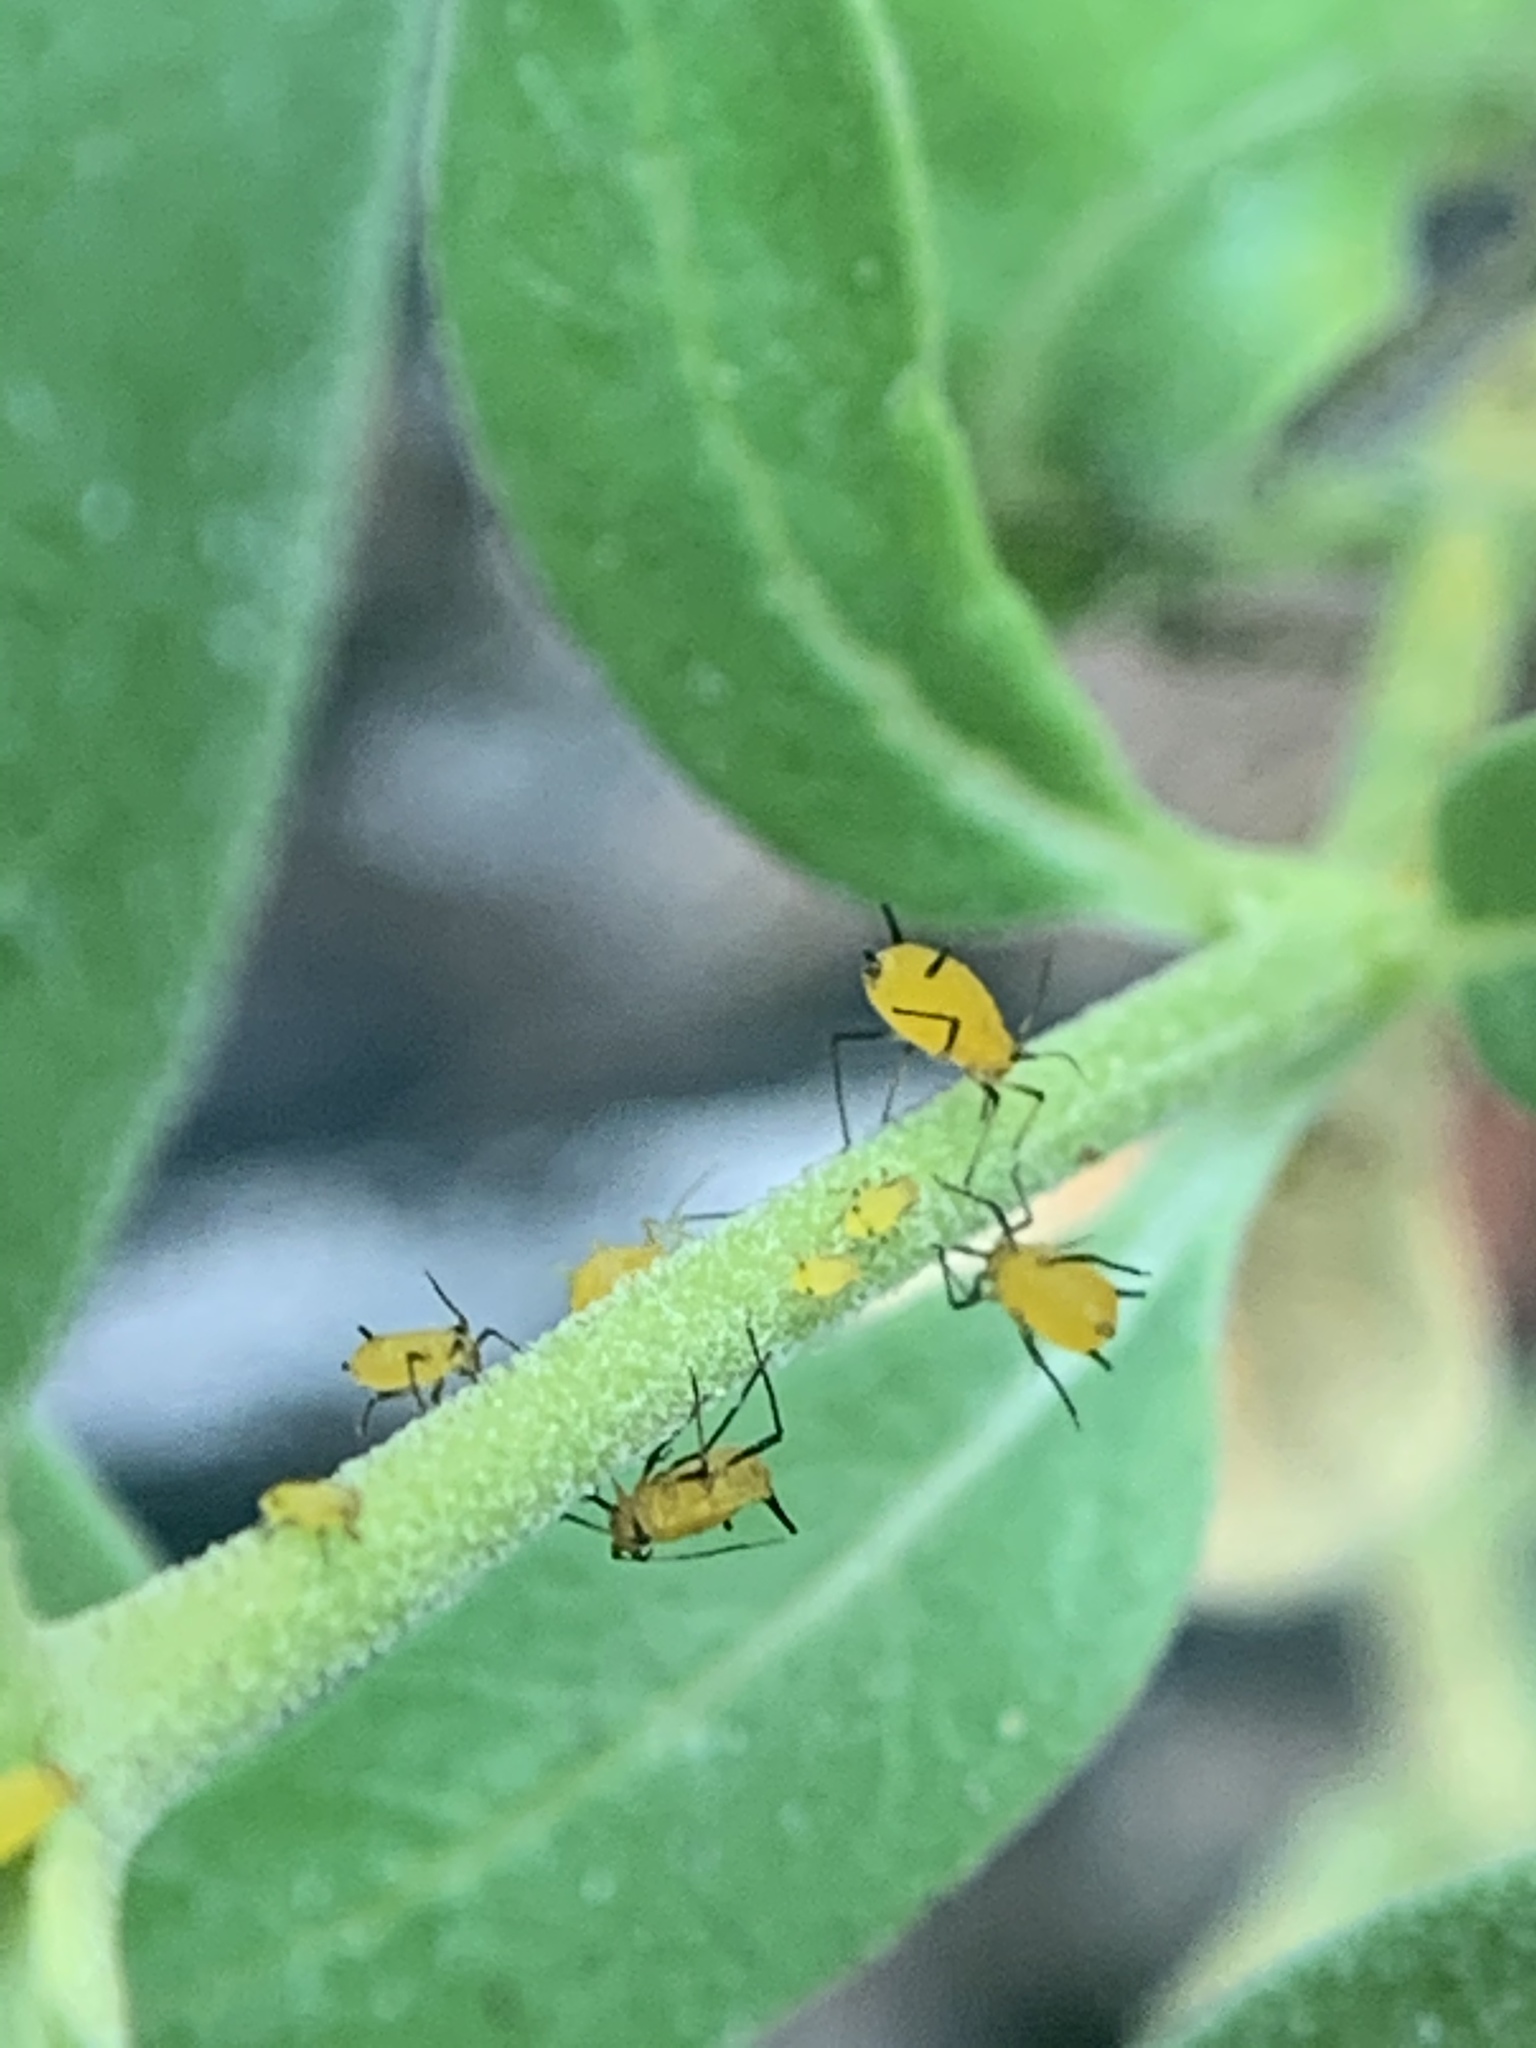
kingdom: Animalia
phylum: Arthropoda
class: Insecta
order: Hemiptera
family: Aphididae
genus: Aphis
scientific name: Aphis nerii
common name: Oleander aphid
